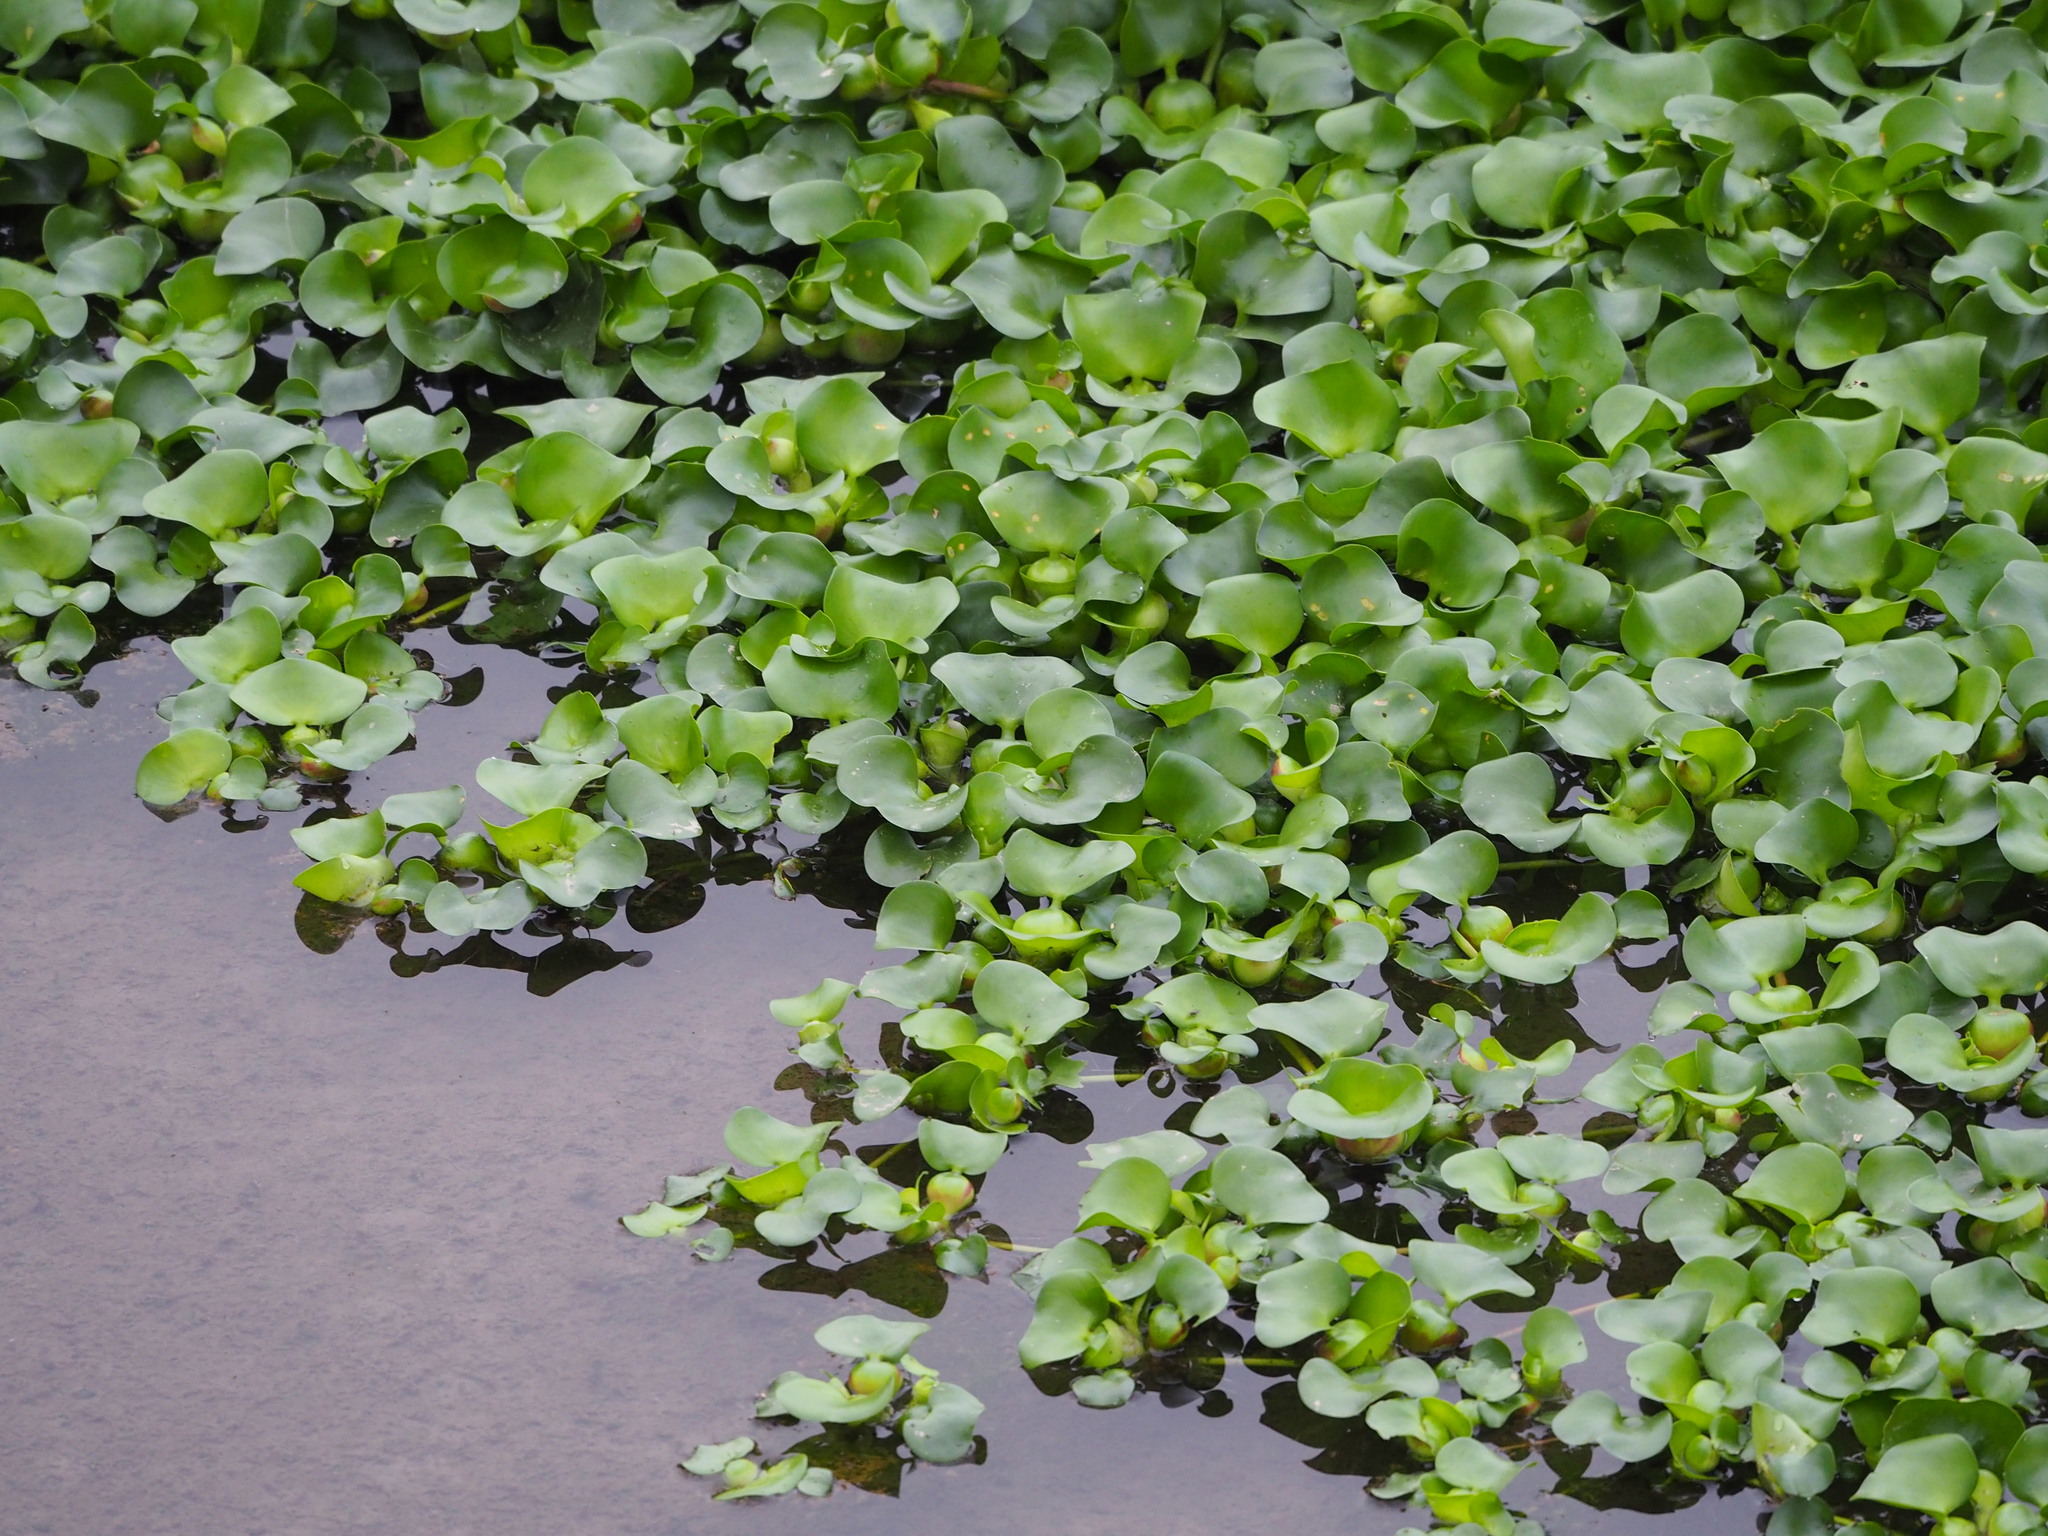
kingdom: Plantae
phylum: Tracheophyta
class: Liliopsida
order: Commelinales
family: Pontederiaceae
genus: Pontederia
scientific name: Pontederia crassipes
